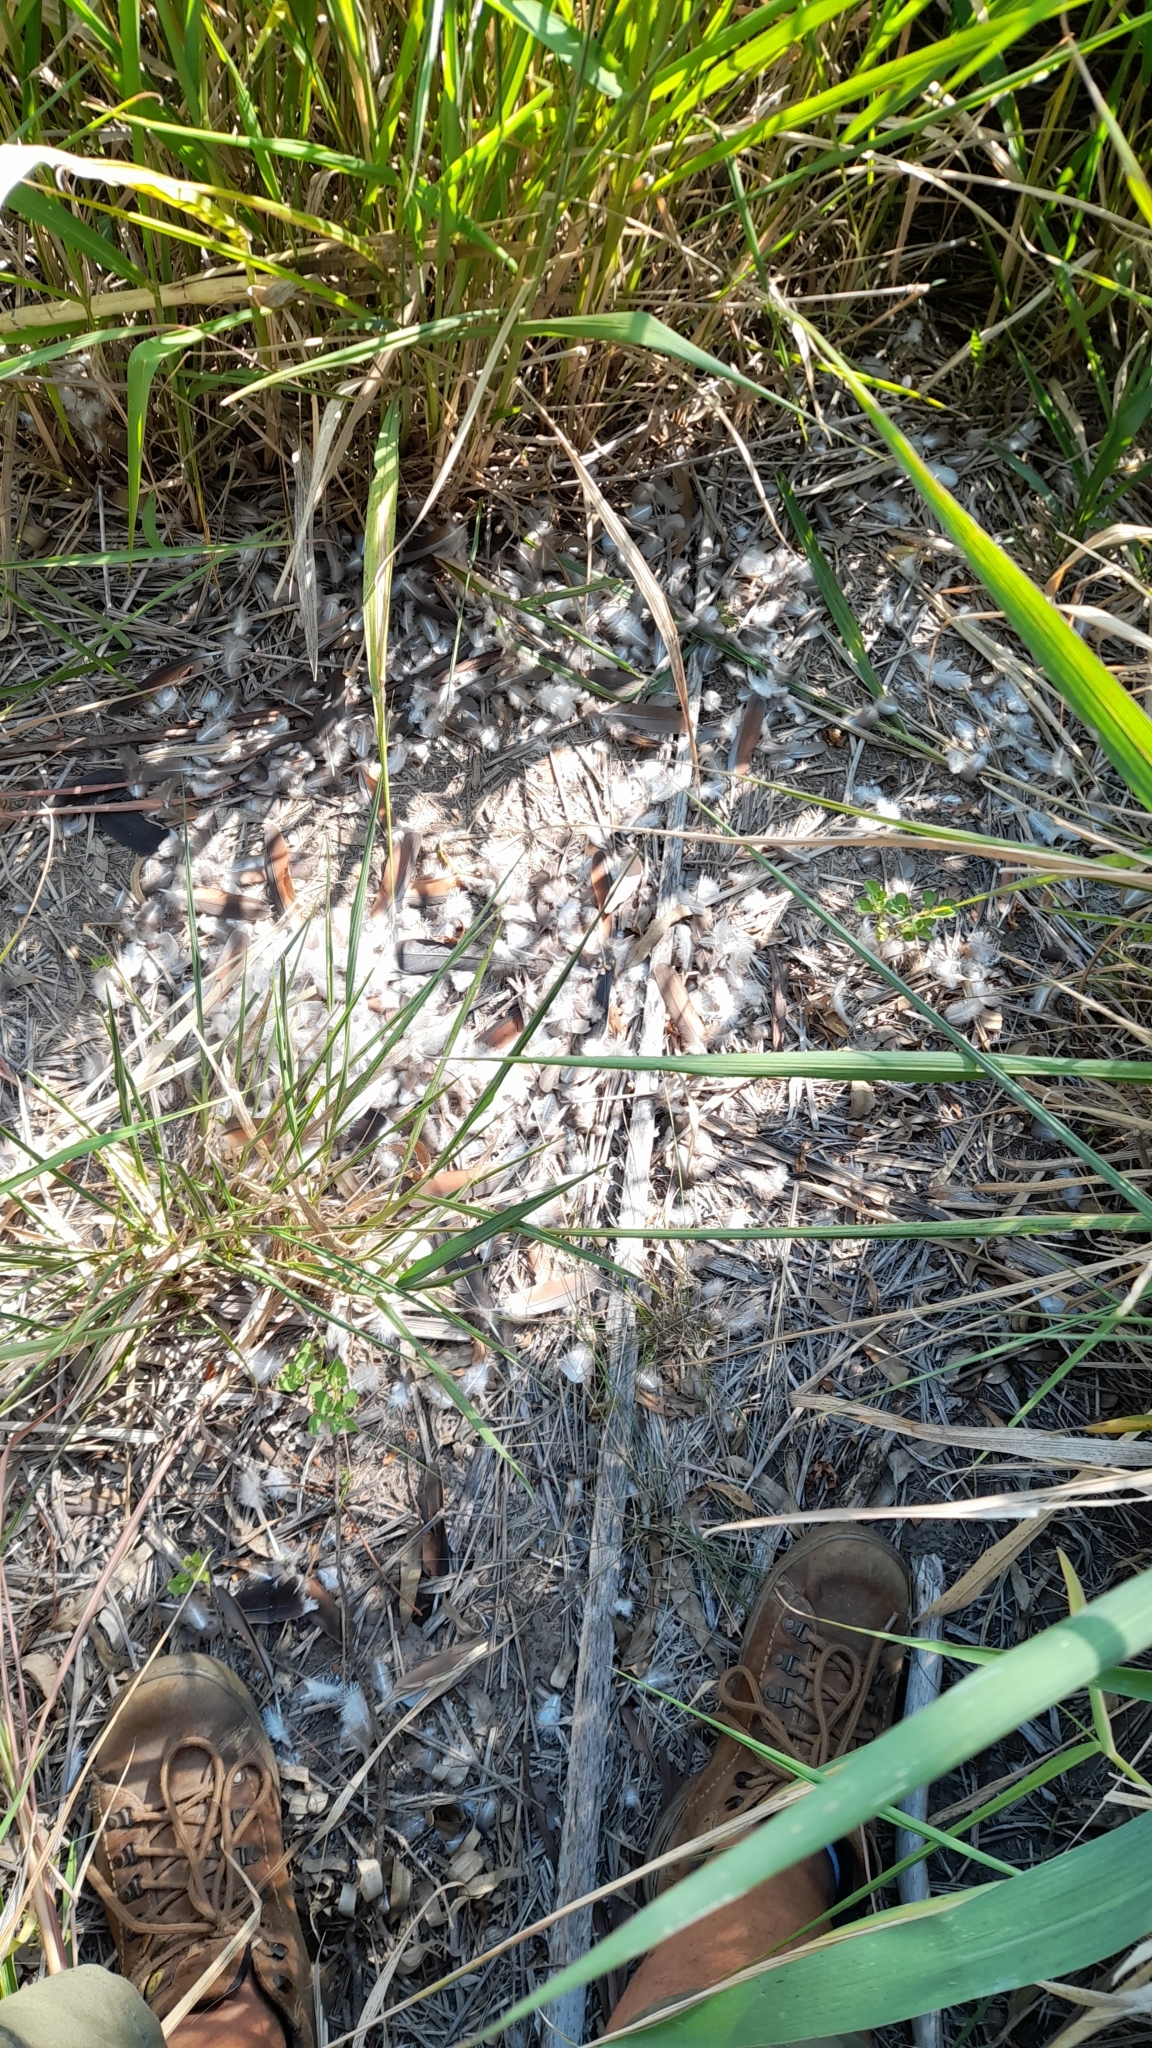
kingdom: Animalia
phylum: Chordata
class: Aves
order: Columbiformes
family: Columbidae
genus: Leptotila
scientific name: Leptotila verreauxi
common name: White-tipped dove
